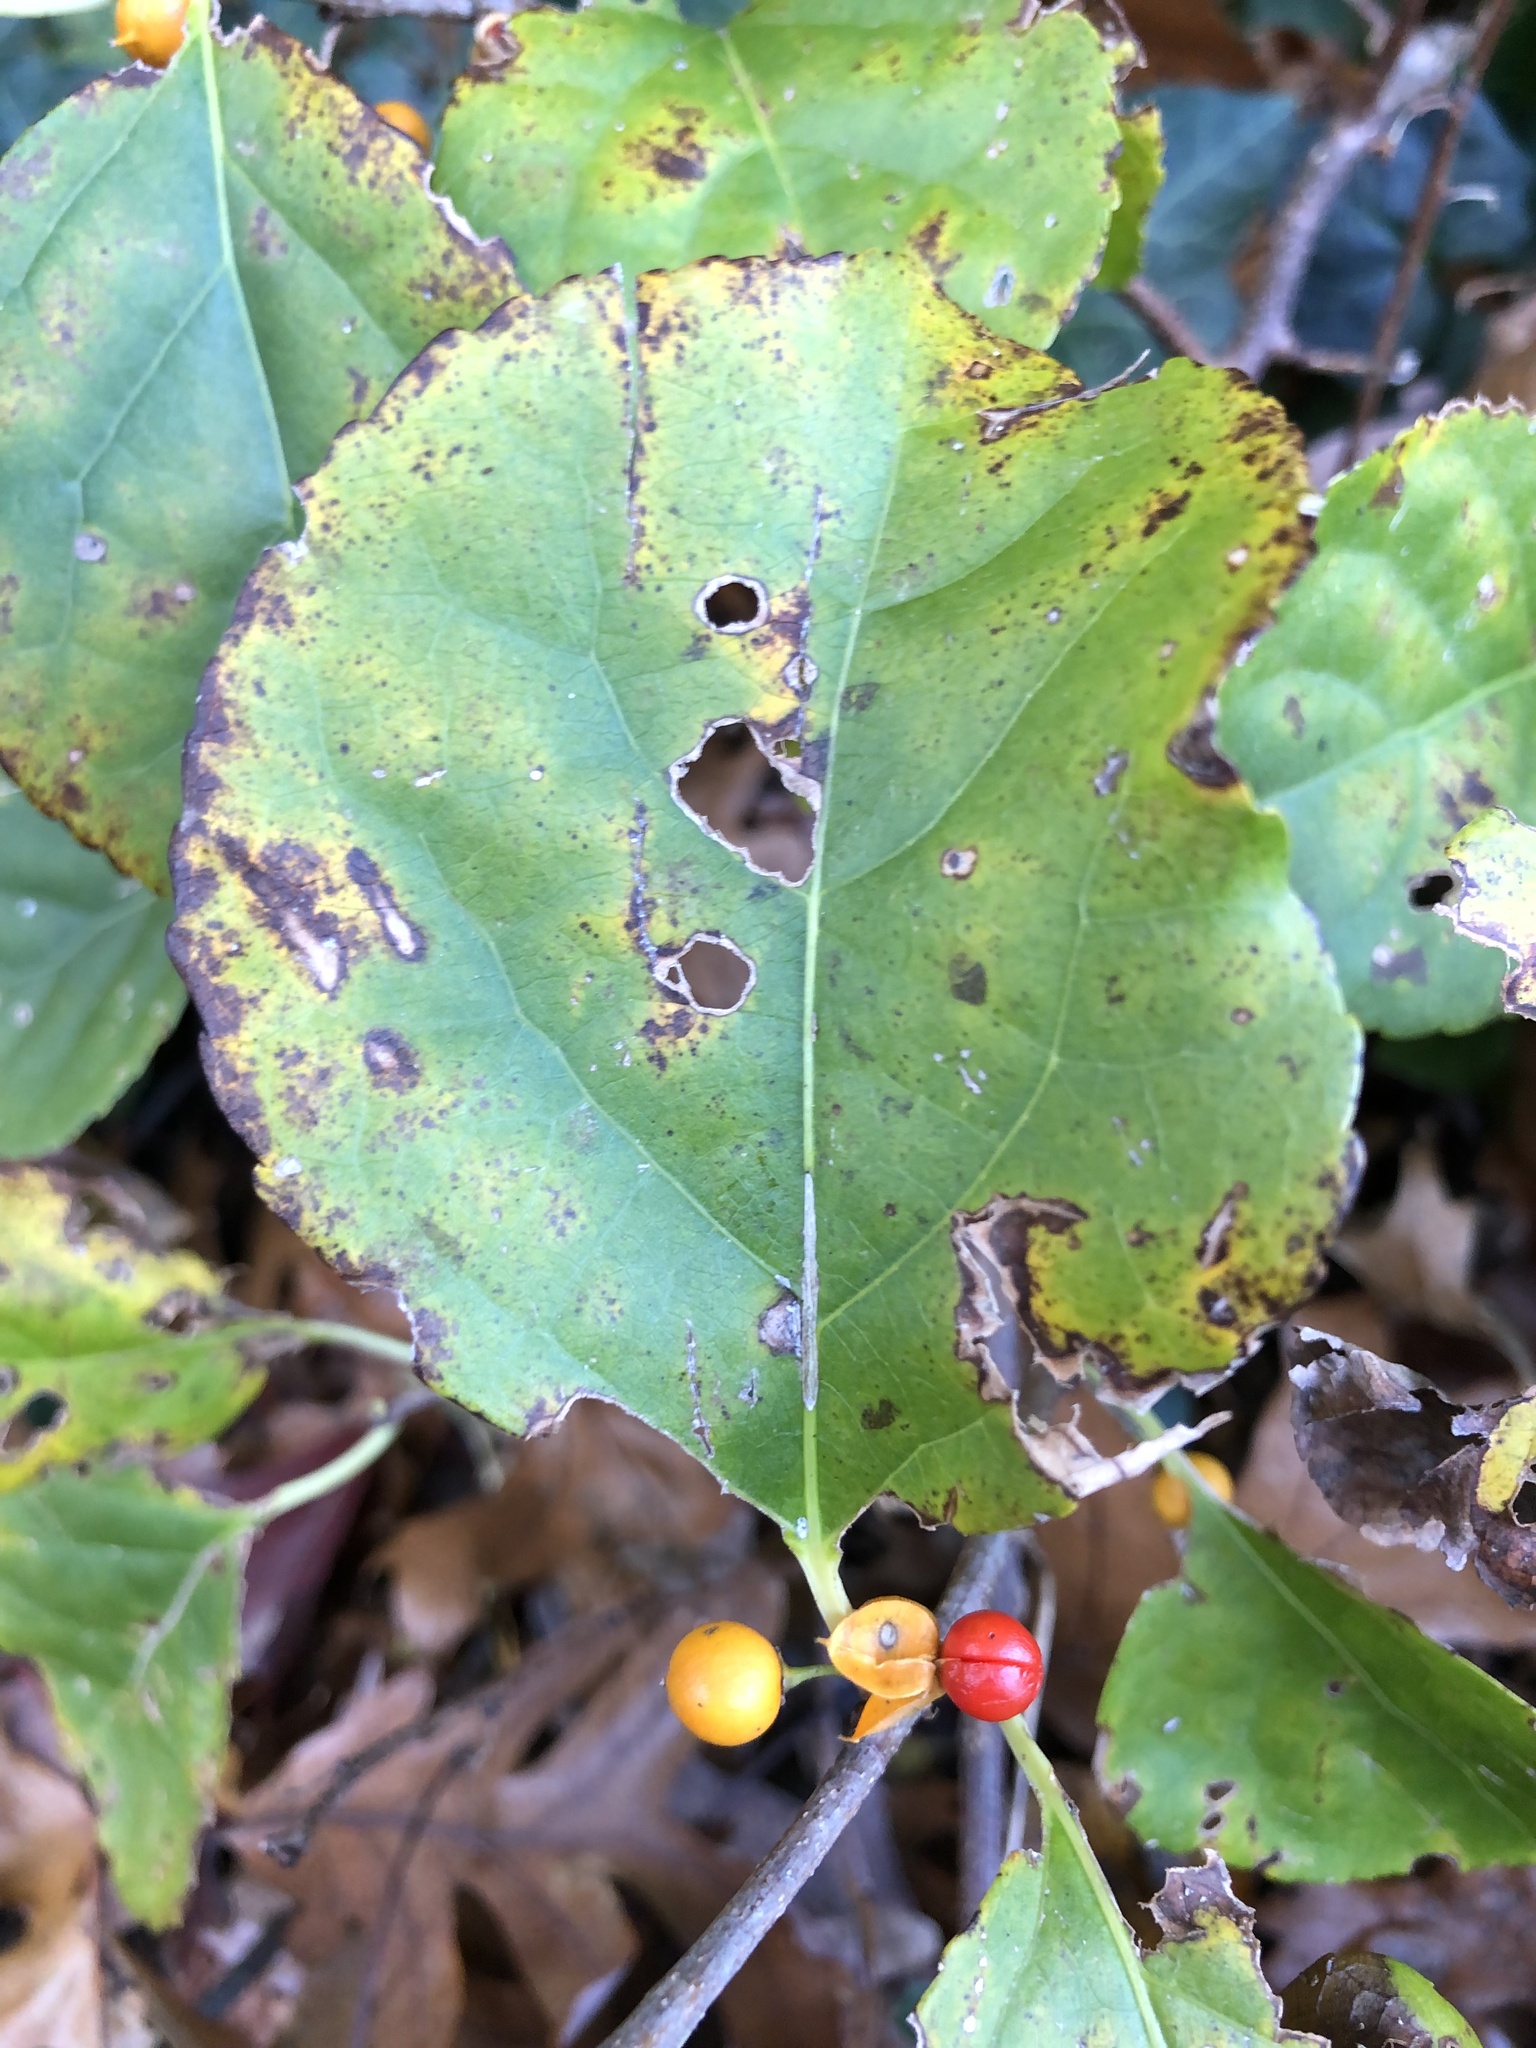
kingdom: Plantae
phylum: Tracheophyta
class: Magnoliopsida
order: Celastrales
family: Celastraceae
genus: Celastrus
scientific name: Celastrus orbiculatus
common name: Oriental bittersweet
